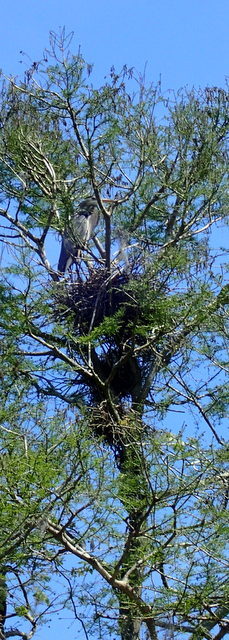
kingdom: Animalia
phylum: Chordata
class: Aves
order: Pelecaniformes
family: Ardeidae
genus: Ardea
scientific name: Ardea herodias
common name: Great blue heron
